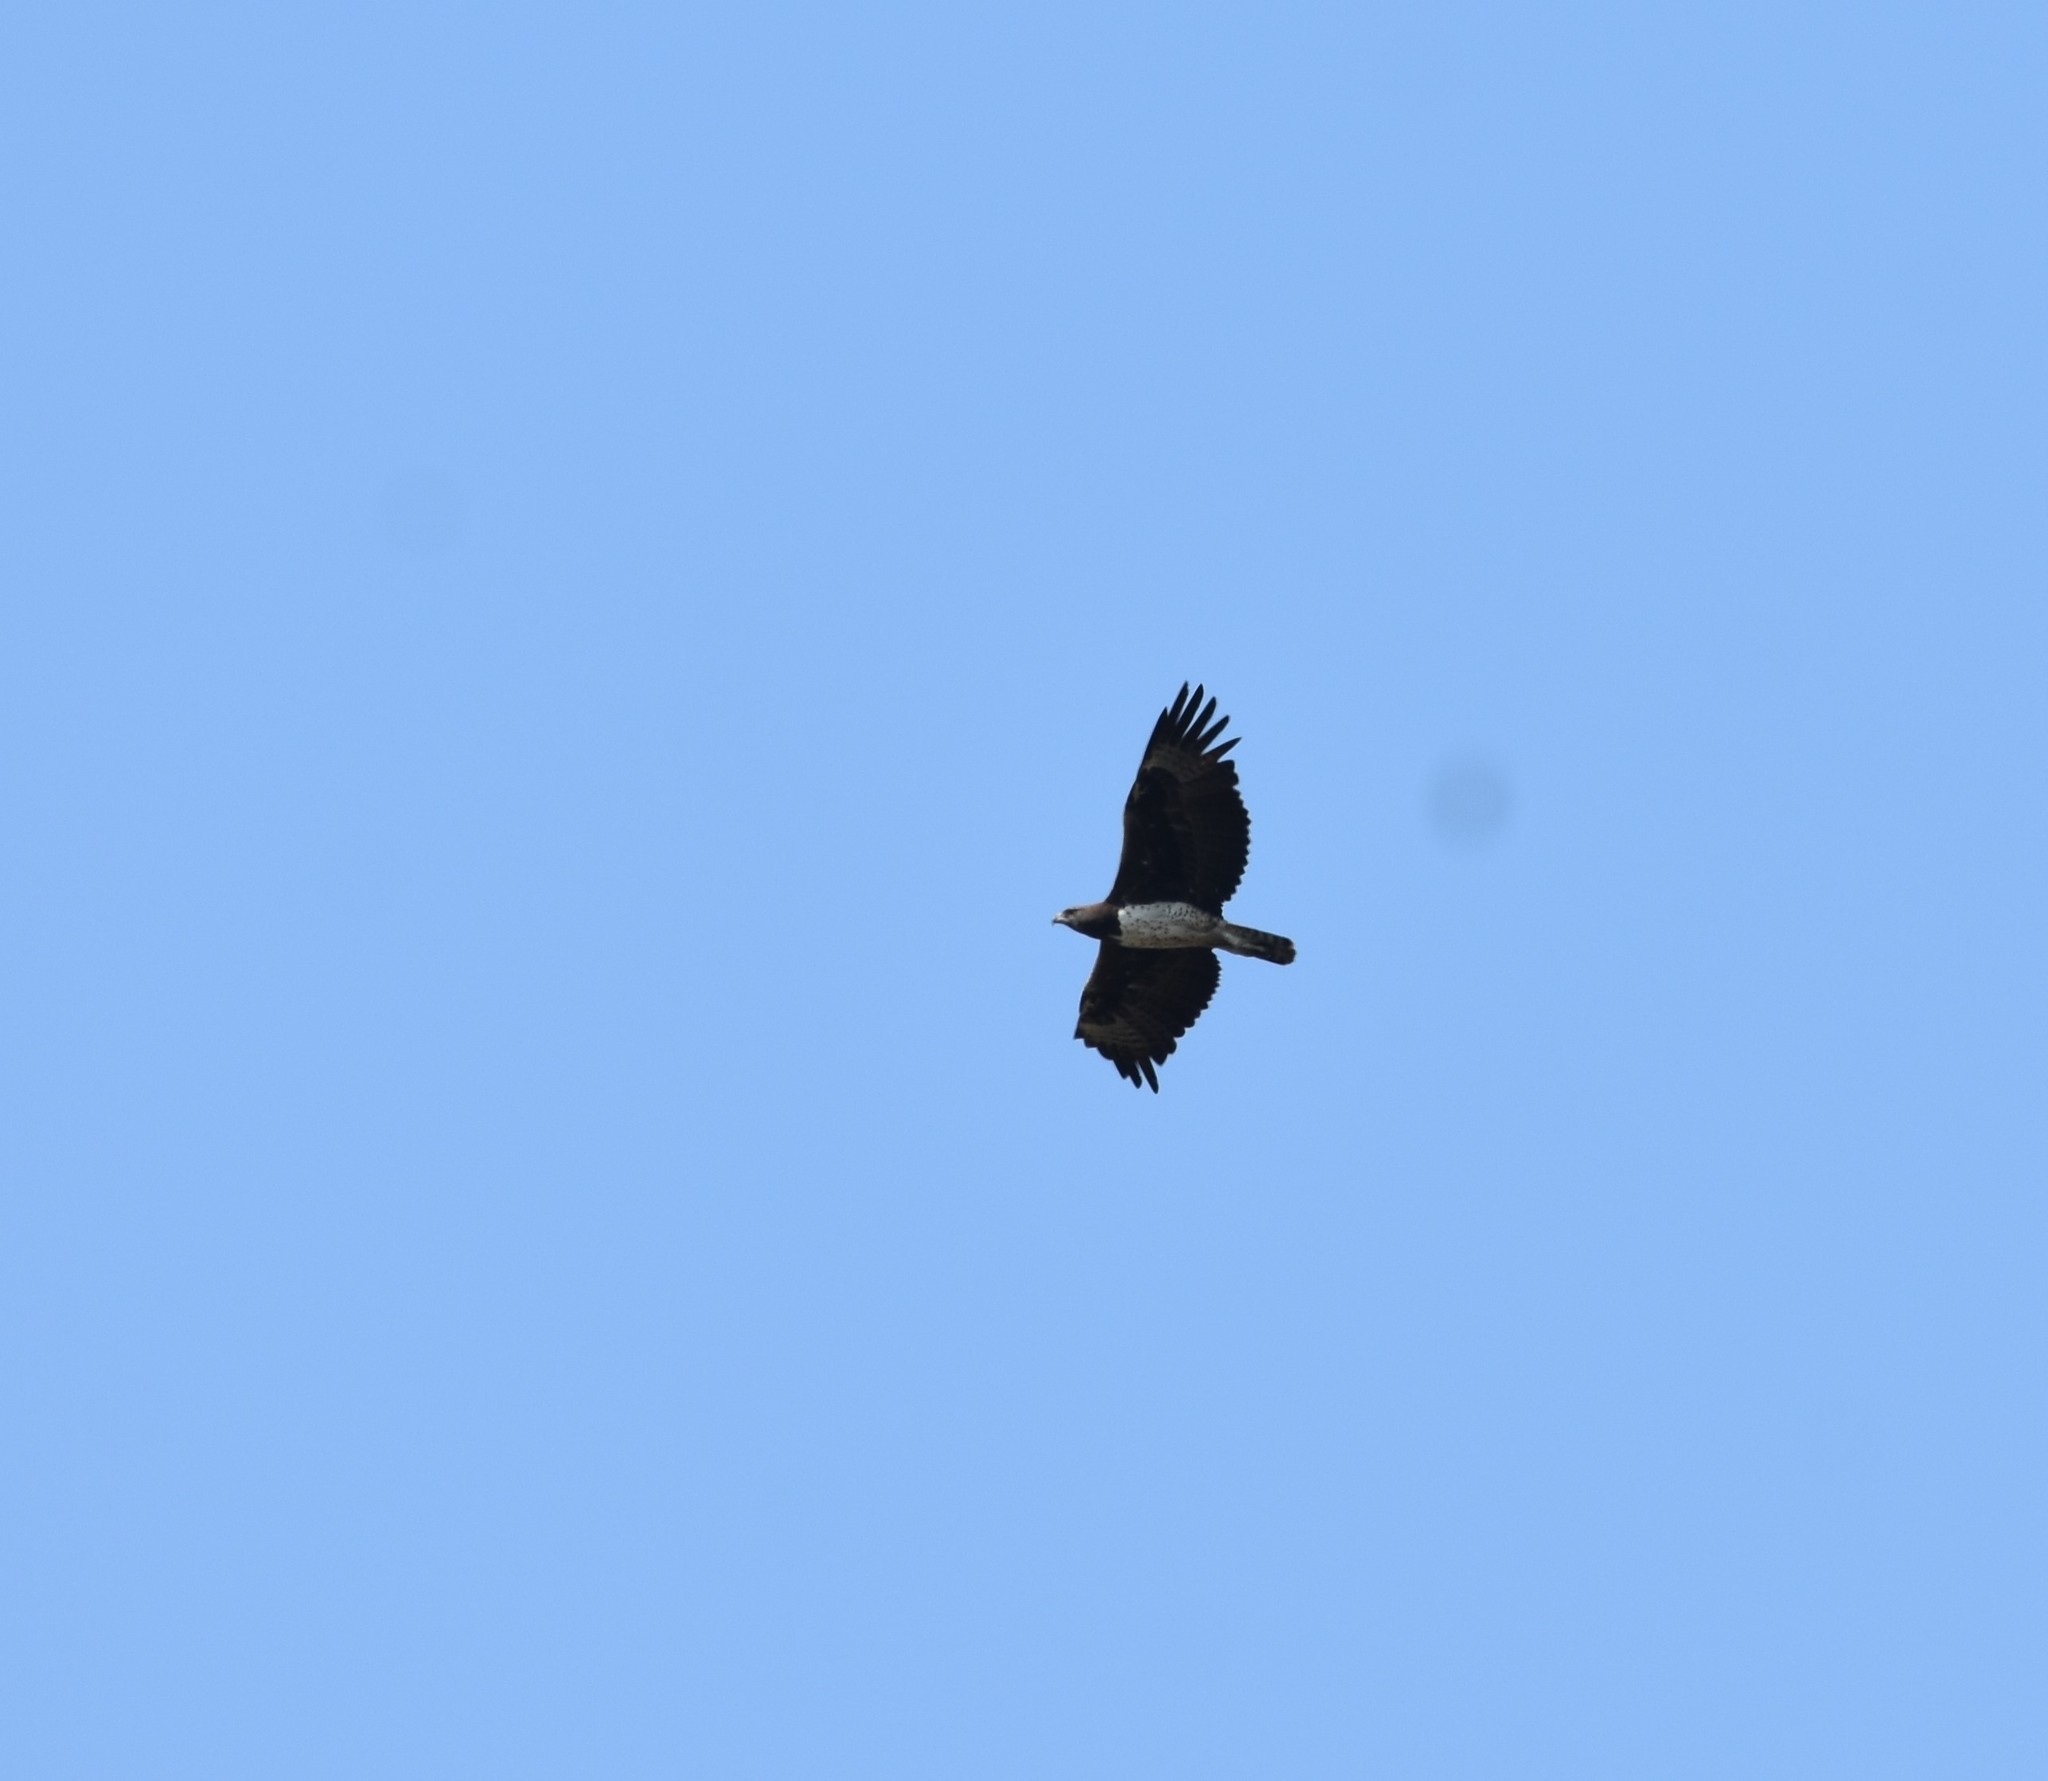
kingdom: Animalia
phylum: Chordata
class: Aves
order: Accipitriformes
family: Accipitridae
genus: Polemaetus
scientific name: Polemaetus bellicosus
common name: Martial eagle
